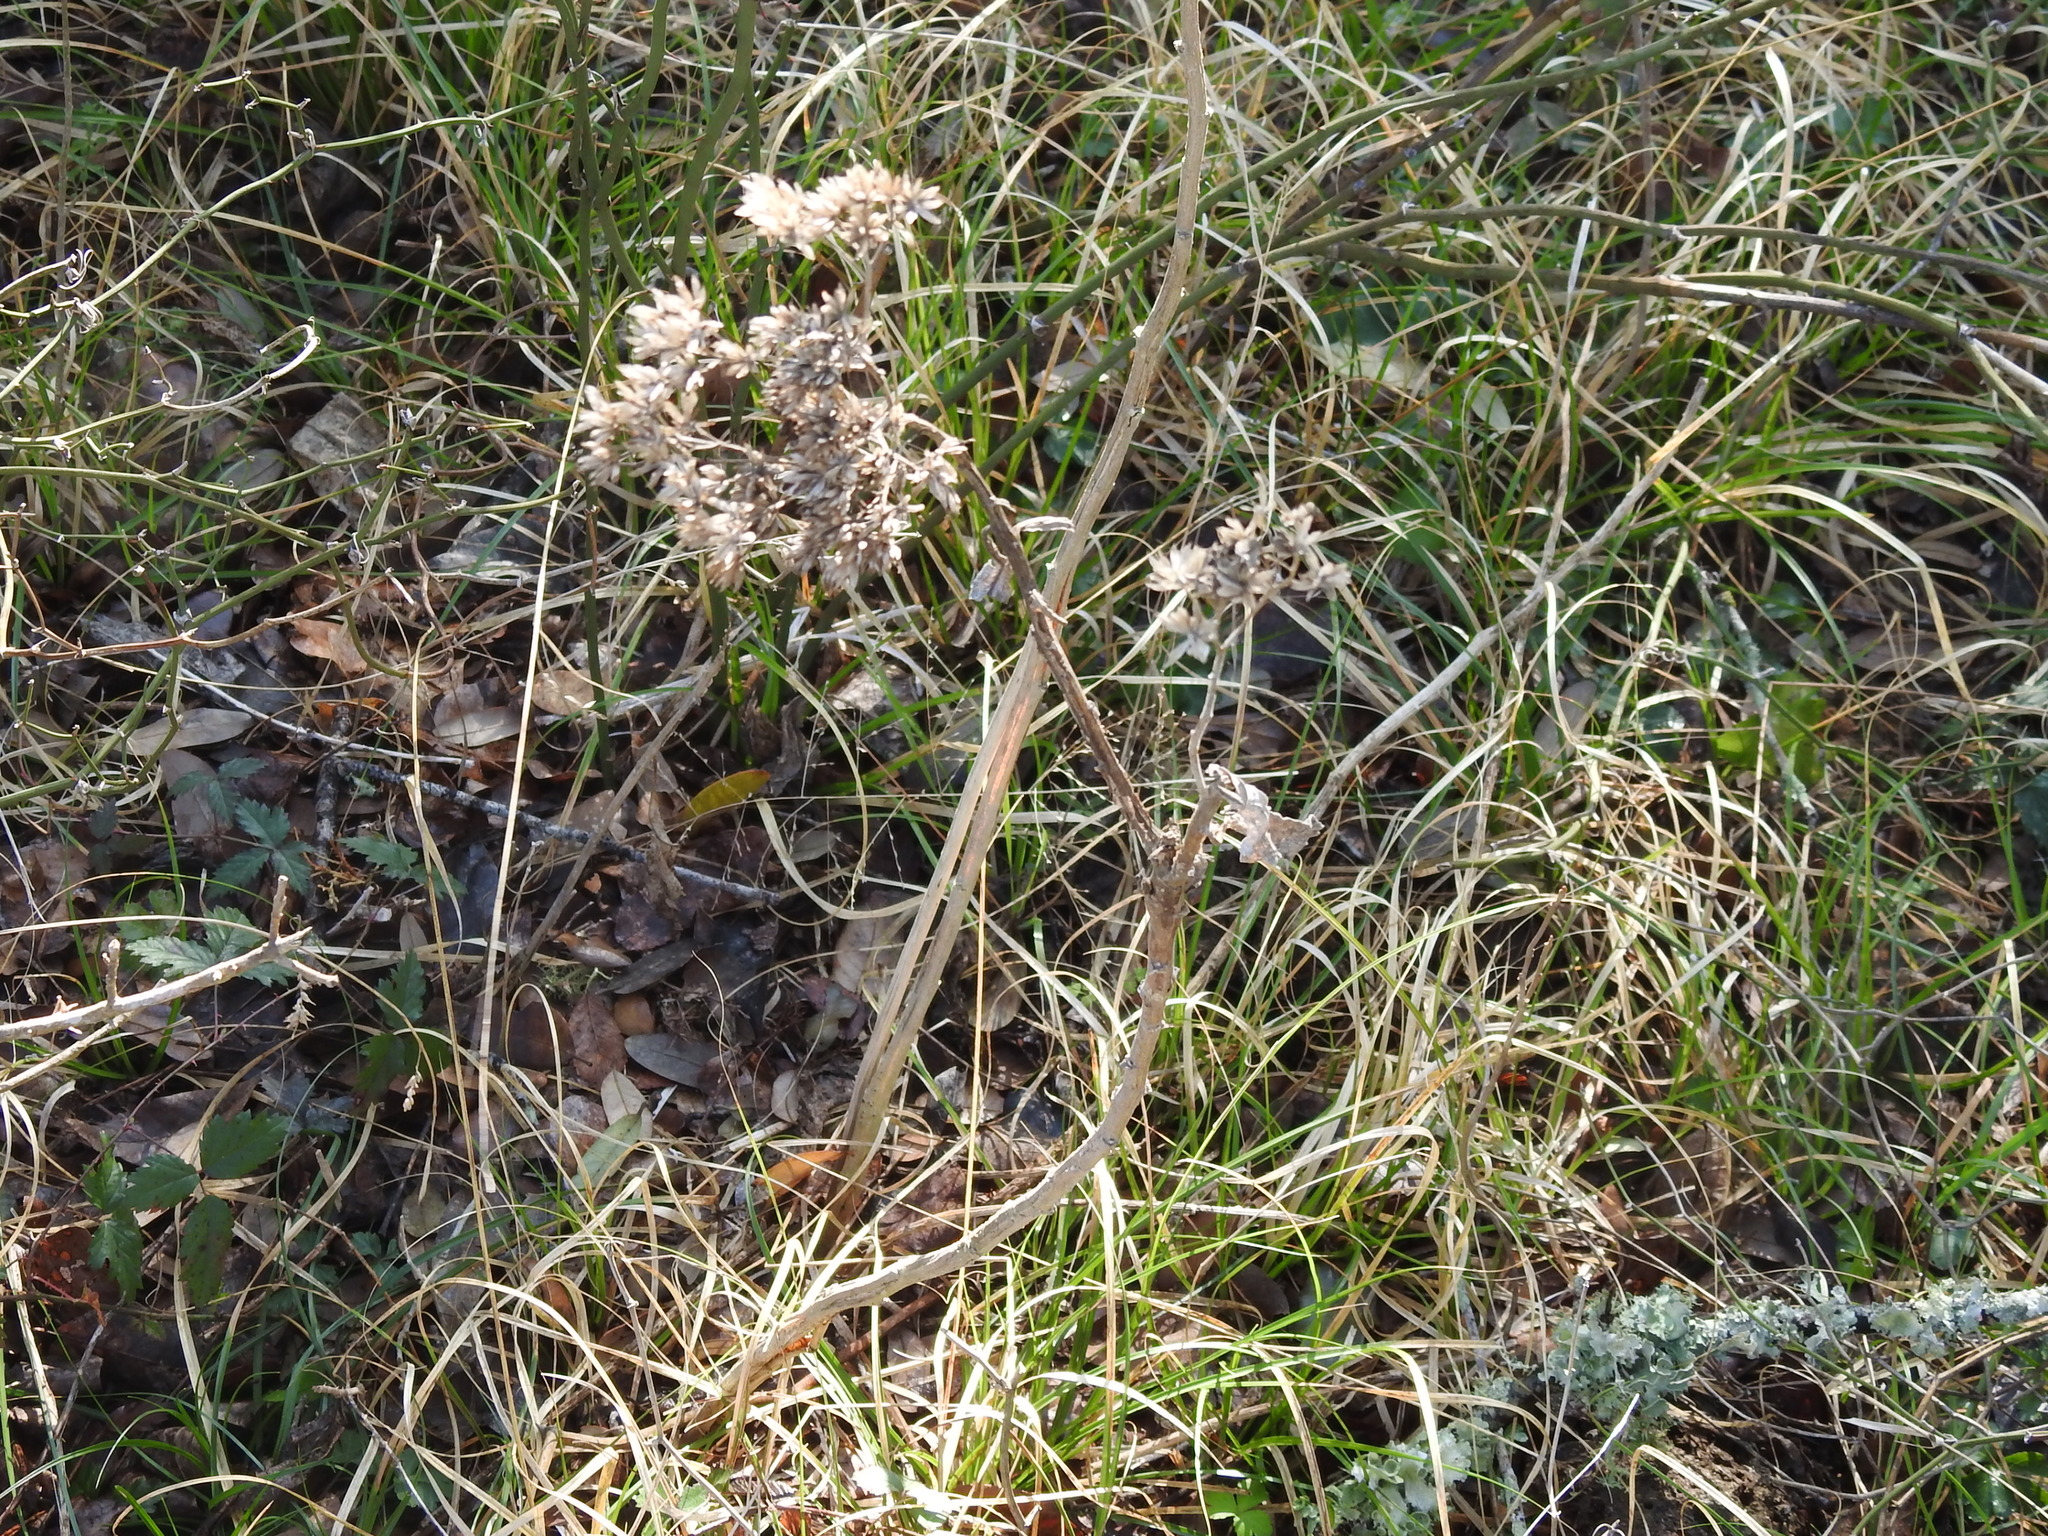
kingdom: Plantae
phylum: Tracheophyta
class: Magnoliopsida
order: Asterales
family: Asteraceae
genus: Verbesina
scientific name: Verbesina virginica
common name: Frostweed
